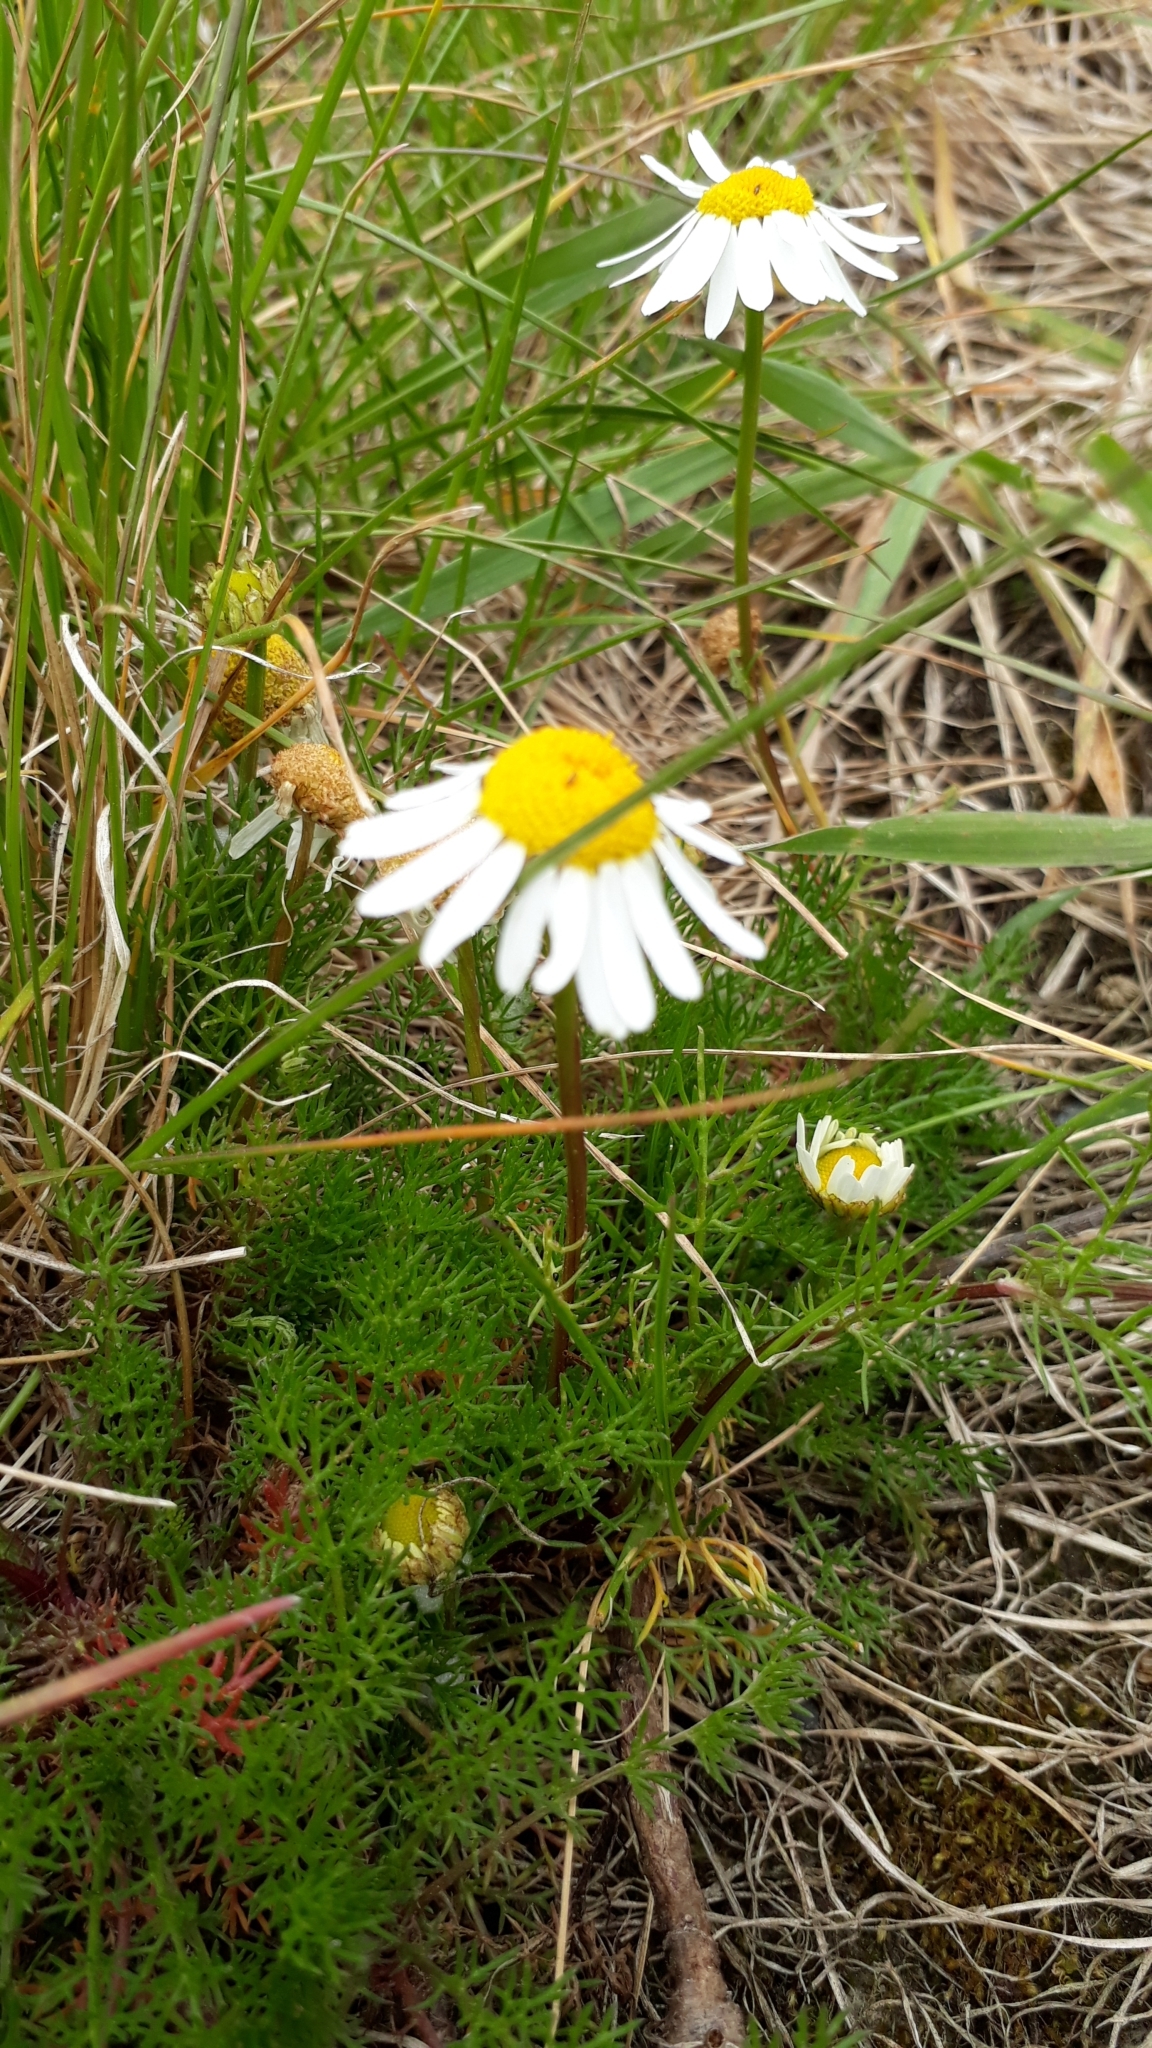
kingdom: Plantae
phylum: Tracheophyta
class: Magnoliopsida
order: Asterales
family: Asteraceae
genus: Tripleurospermum
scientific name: Tripleurospermum inodorum
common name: Scentless mayweed
